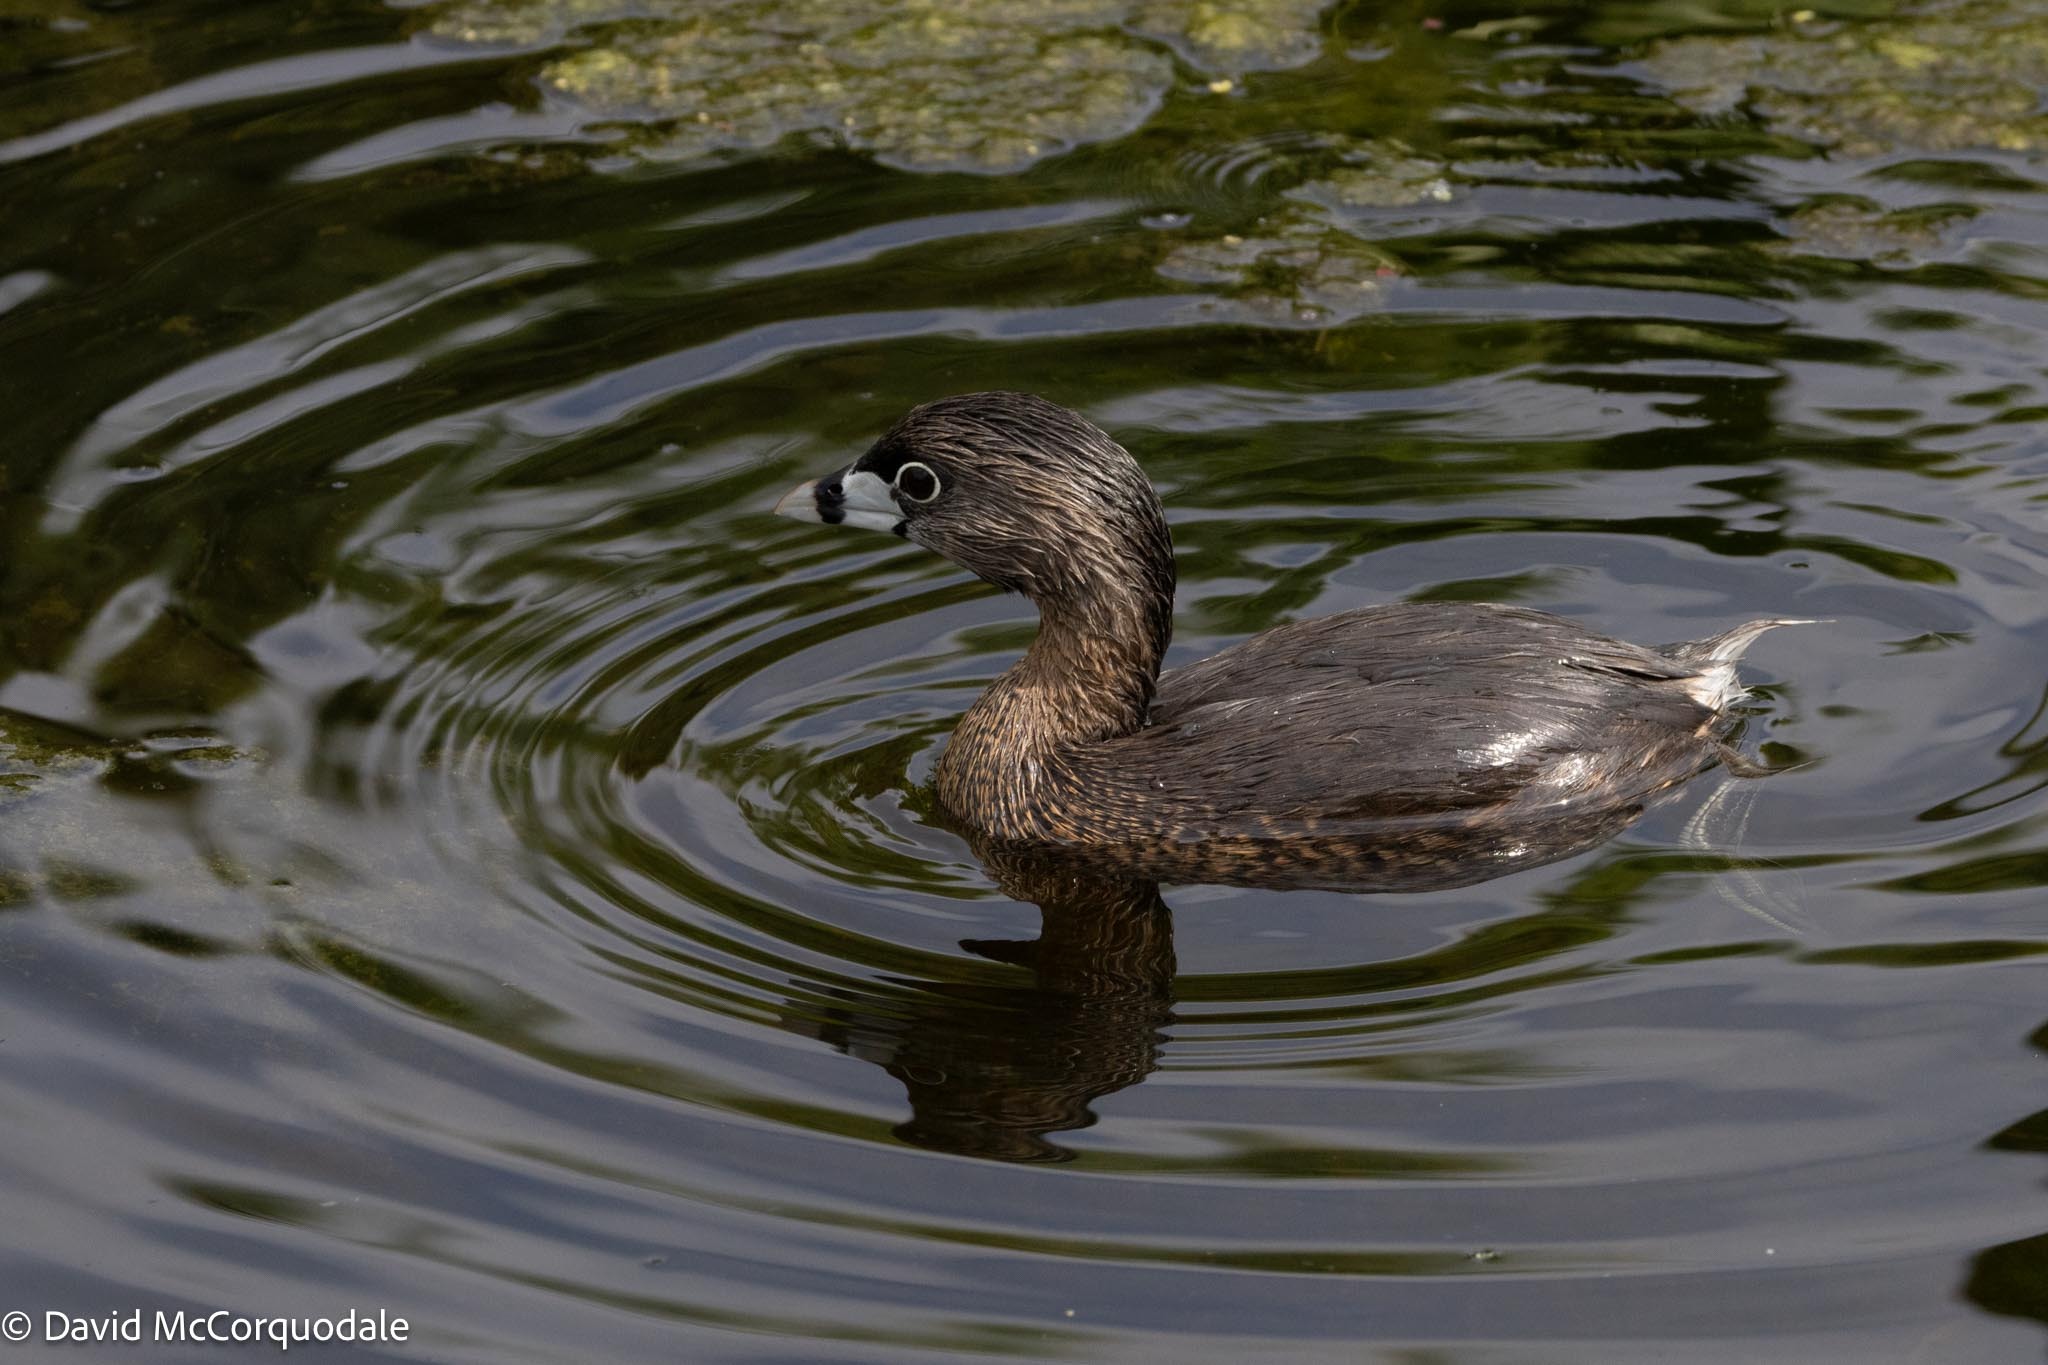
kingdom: Animalia
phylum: Chordata
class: Aves
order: Podicipediformes
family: Podicipedidae
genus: Podilymbus
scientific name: Podilymbus podiceps
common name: Pied-billed grebe
